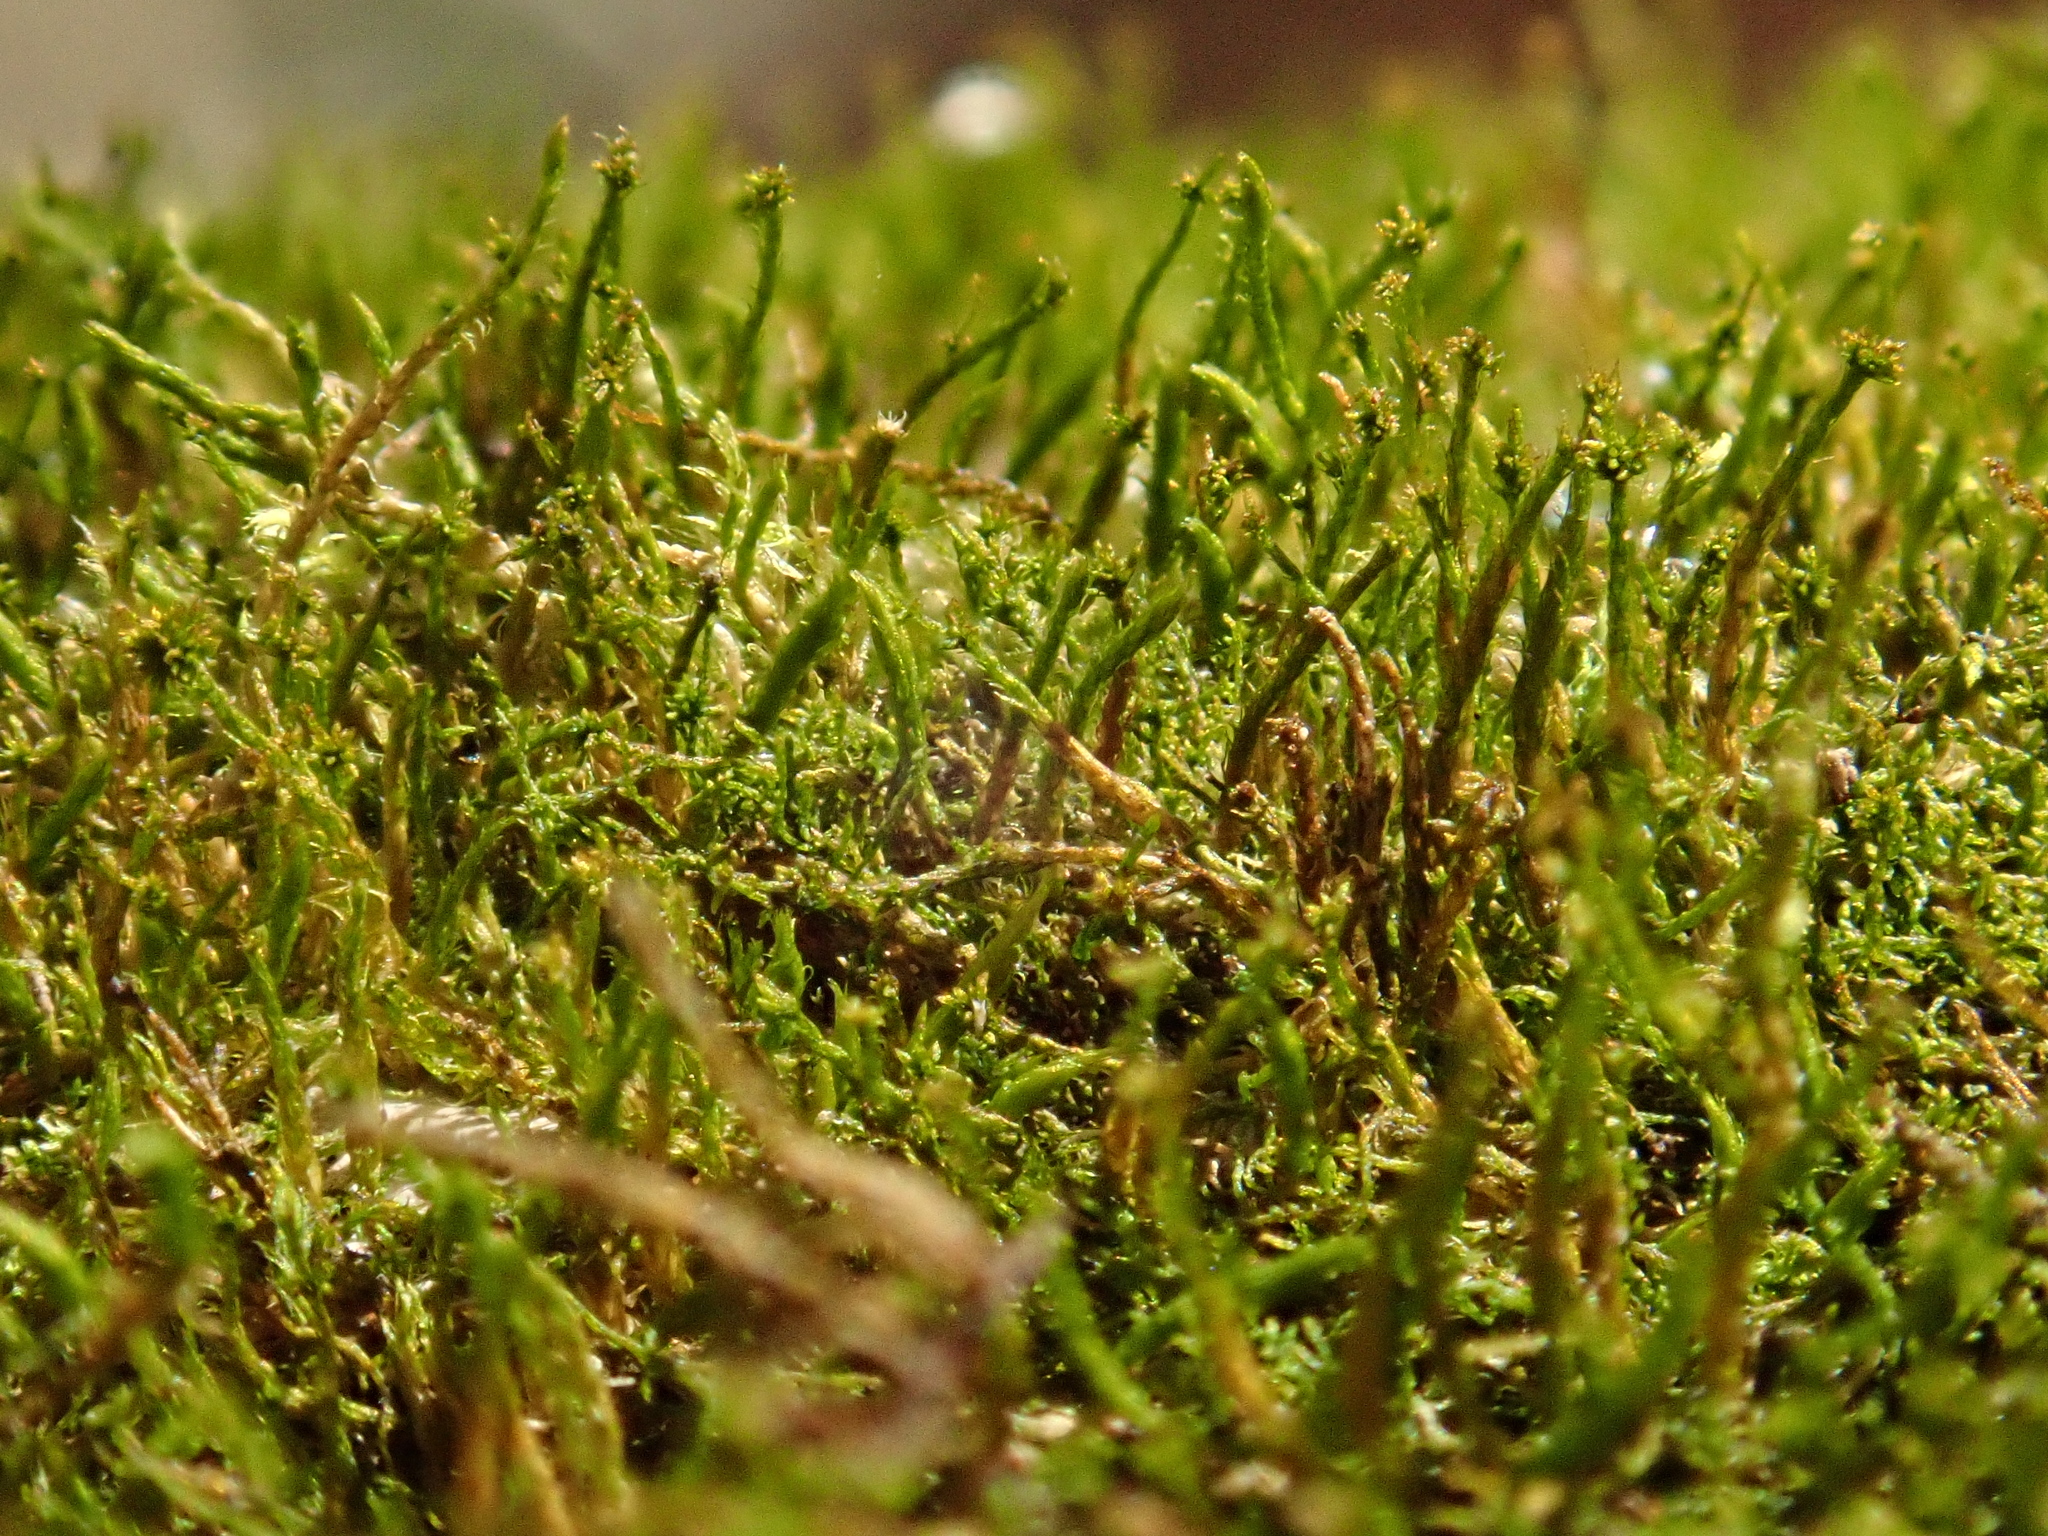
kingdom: Plantae
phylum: Bryophyta
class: Bryopsida
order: Hypnales
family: Pseudoleskeellaceae
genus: Pseudoleskeella
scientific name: Pseudoleskeella nervosa
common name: Nerved leske's moss
